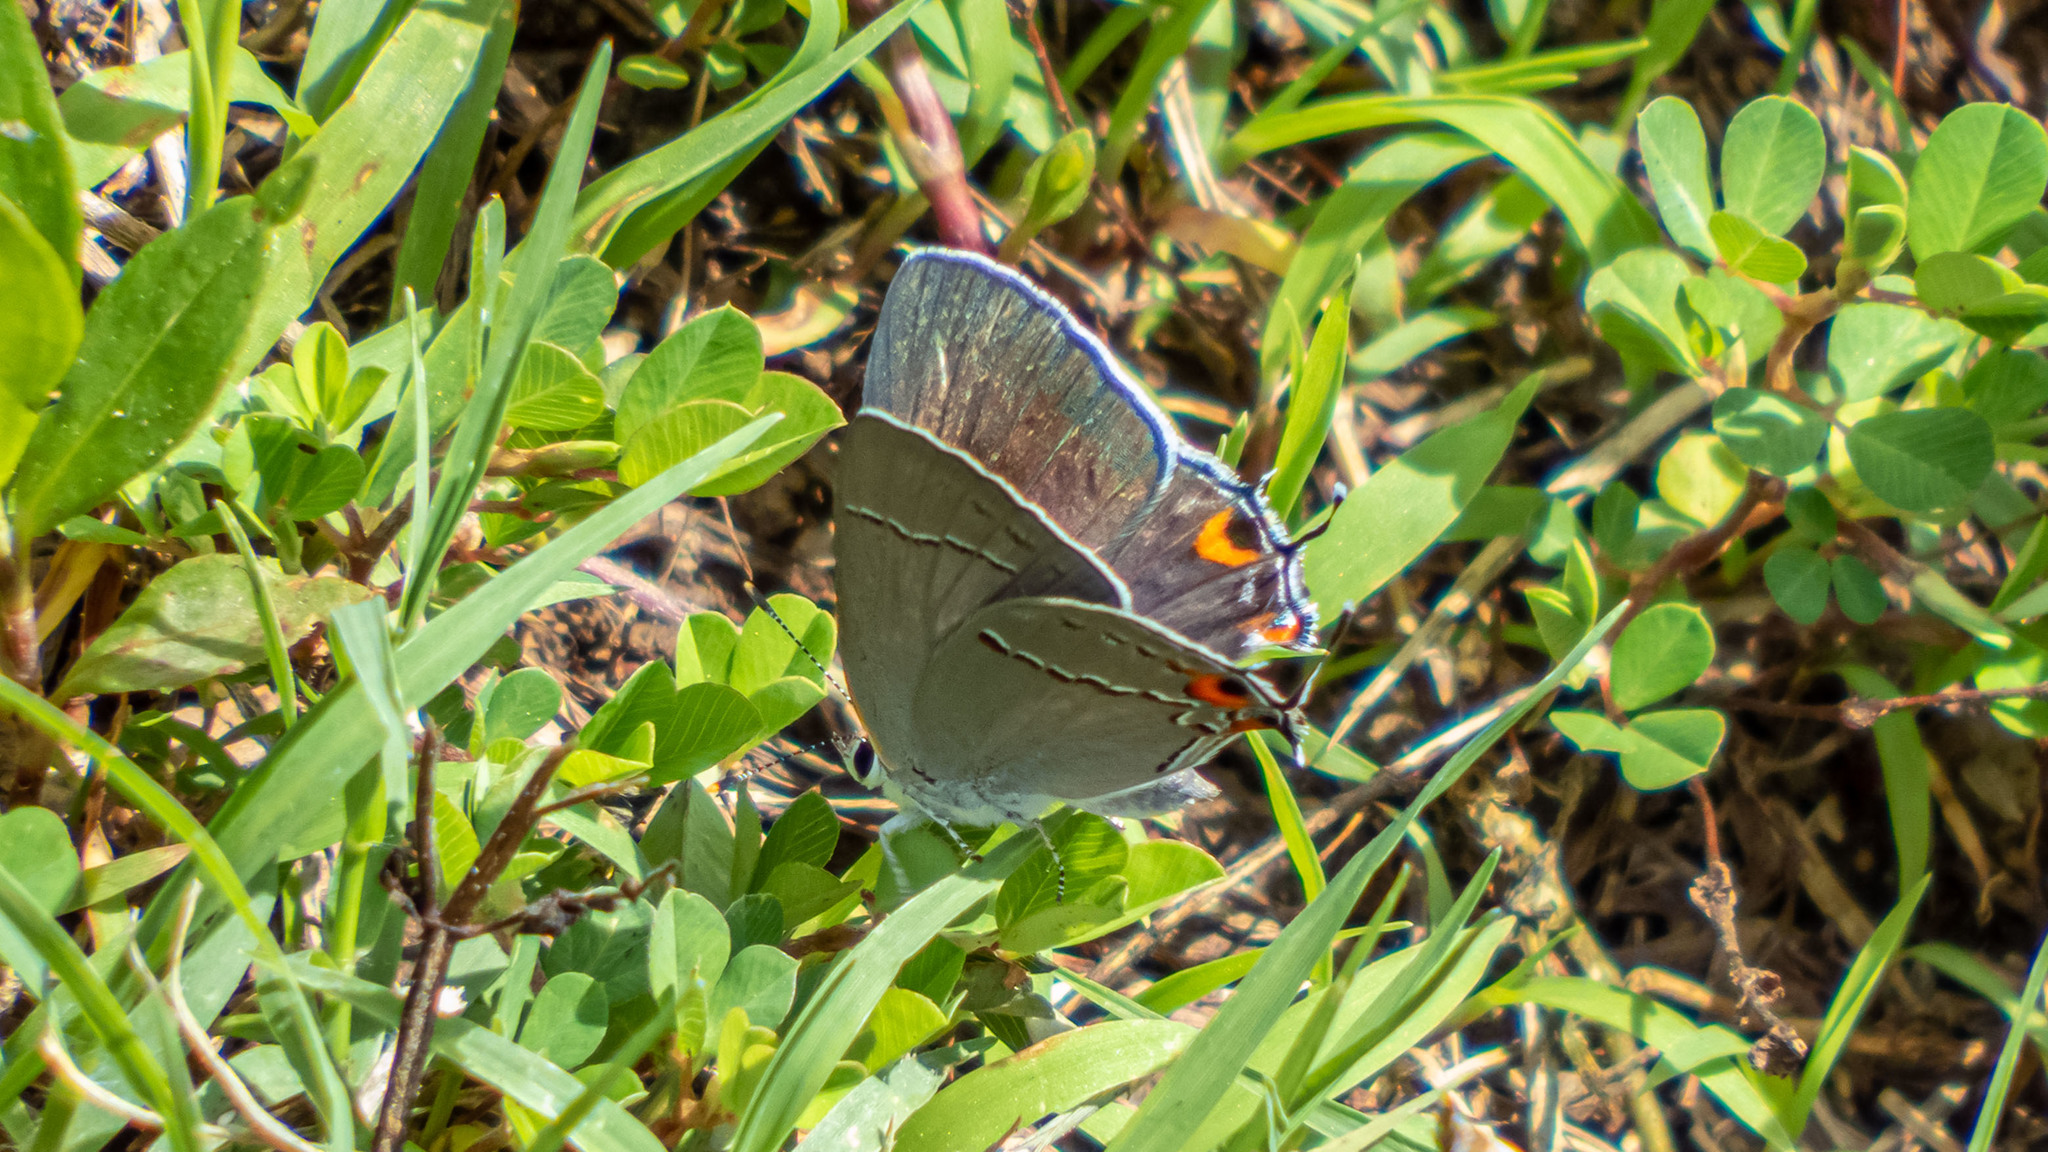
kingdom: Animalia
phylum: Arthropoda
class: Insecta
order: Lepidoptera
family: Lycaenidae
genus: Strymon
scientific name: Strymon melinus
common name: Gray hairstreak
